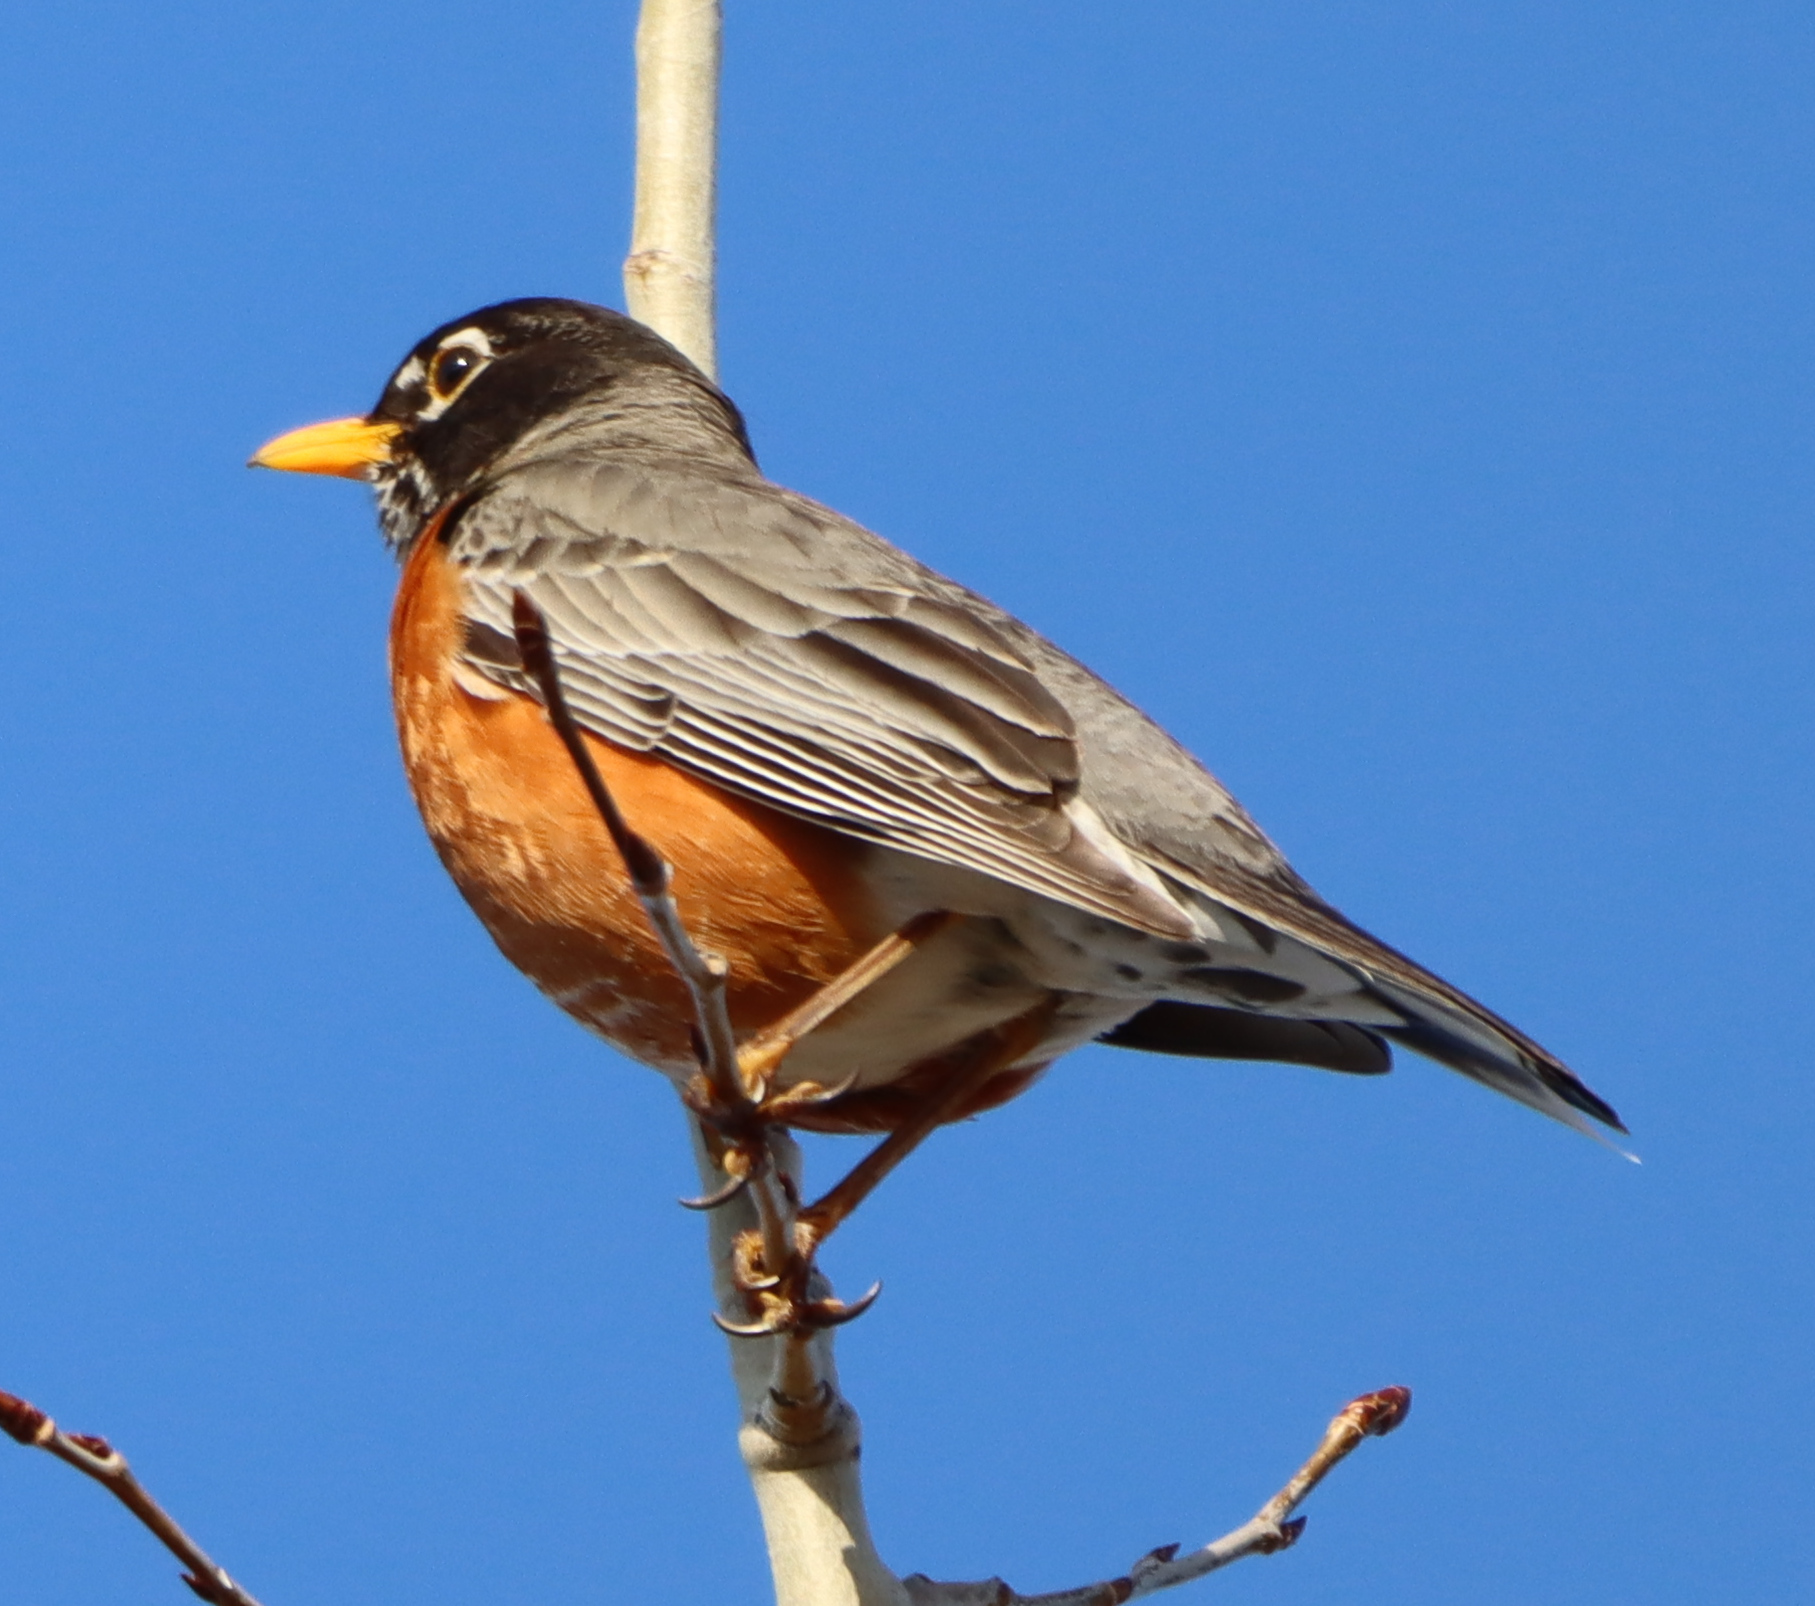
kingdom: Animalia
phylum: Chordata
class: Aves
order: Passeriformes
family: Turdidae
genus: Turdus
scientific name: Turdus migratorius
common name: American robin
